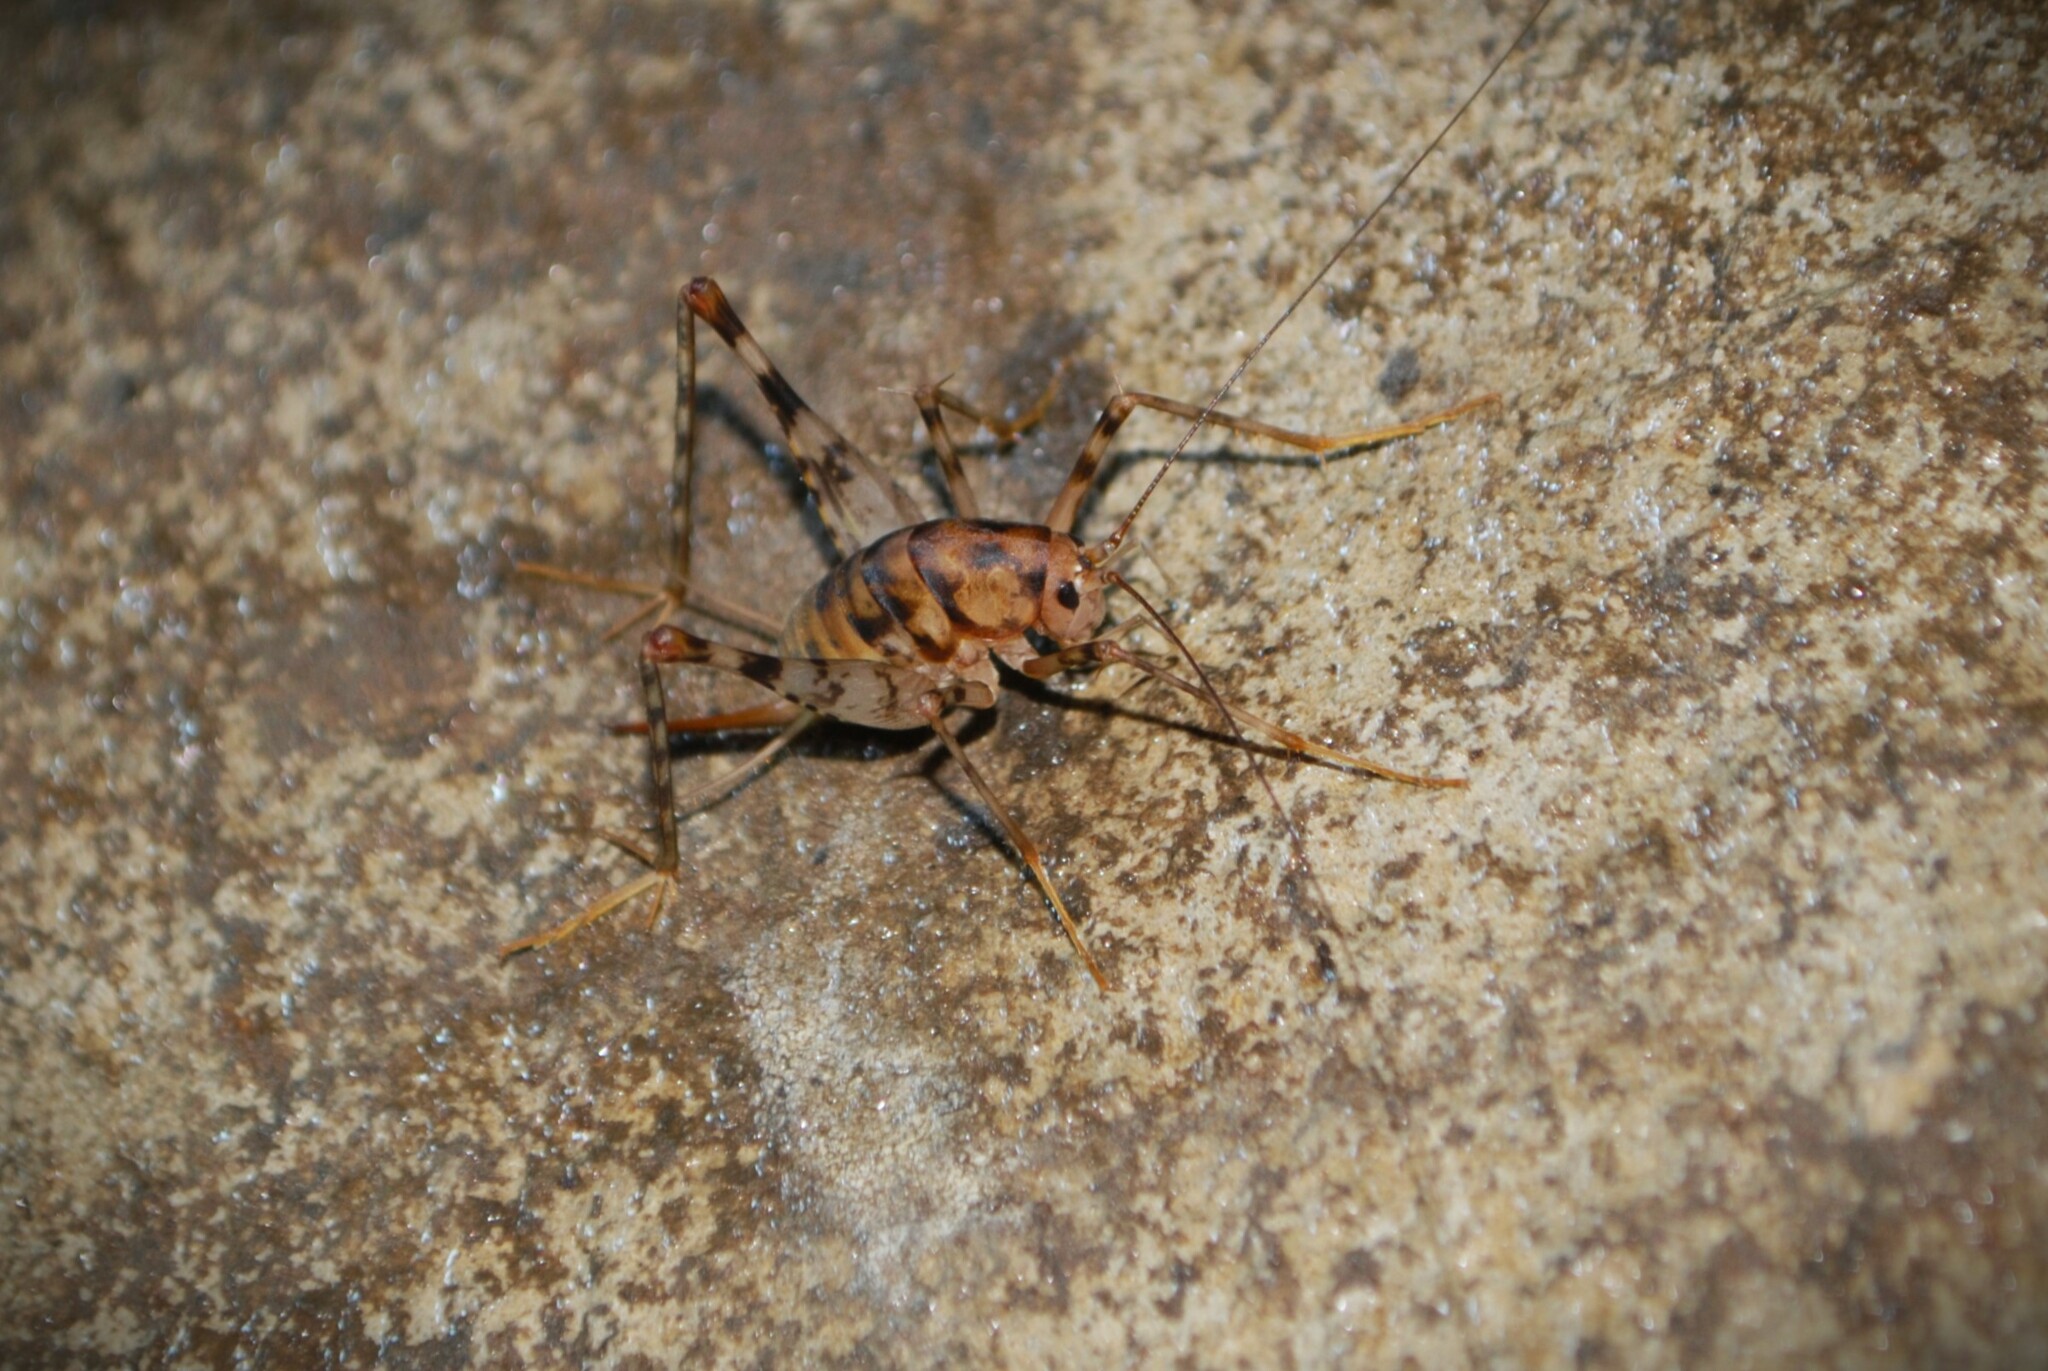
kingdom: Animalia
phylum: Arthropoda
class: Insecta
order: Orthoptera
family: Rhaphidophoridae
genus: Tachycines
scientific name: Tachycines asynamorus
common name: Greenhouse camel cricket
